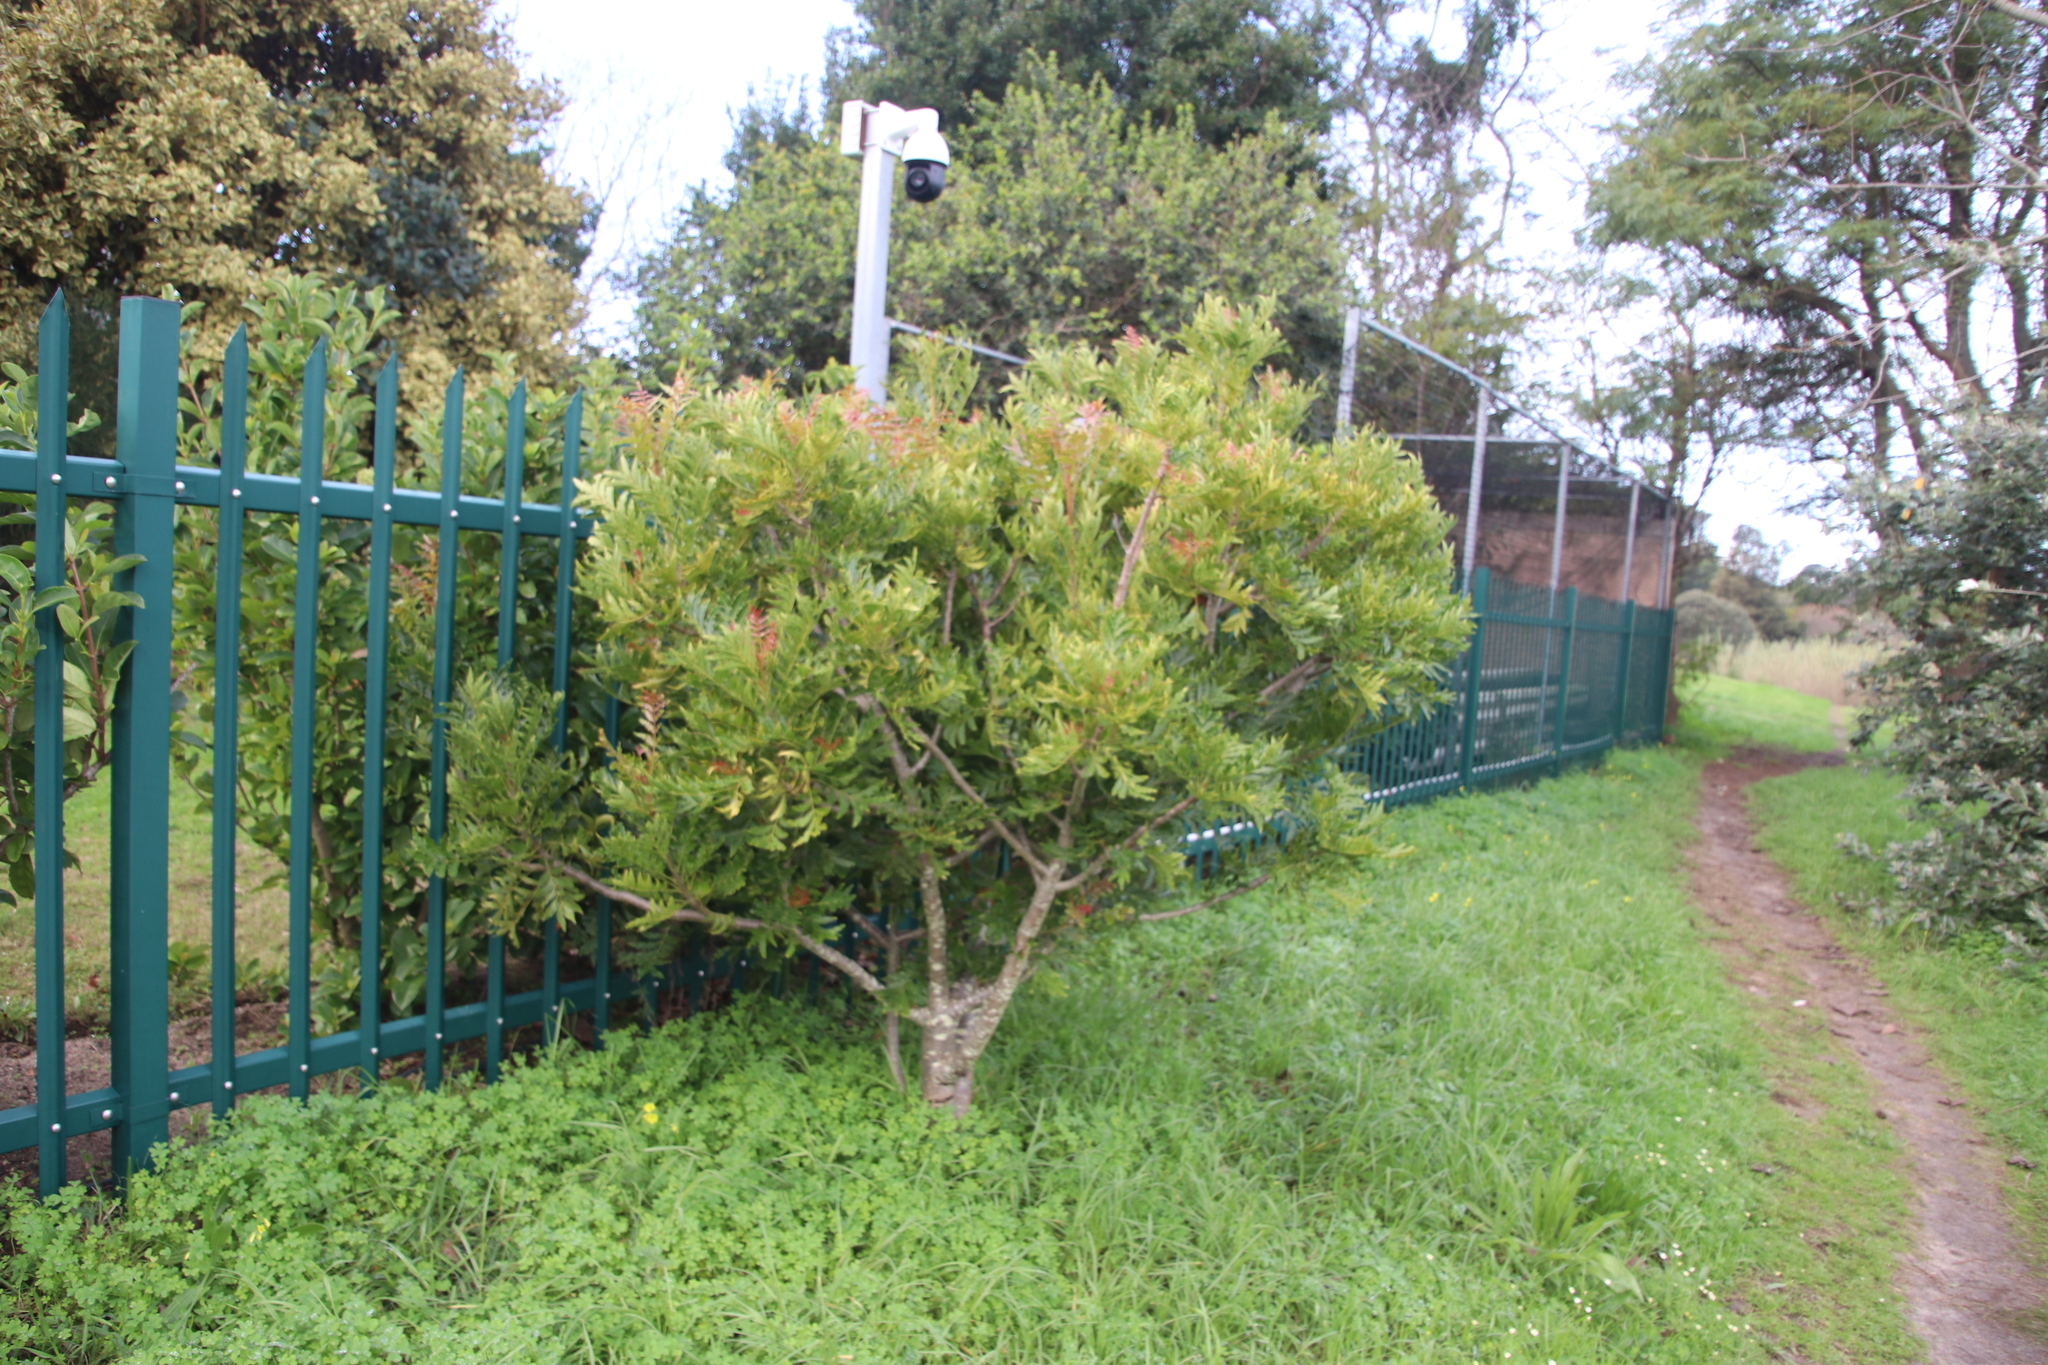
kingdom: Plantae
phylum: Tracheophyta
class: Magnoliopsida
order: Sapindales
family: Anacardiaceae
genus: Harpephyllum
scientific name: Harpephyllum caffrum
